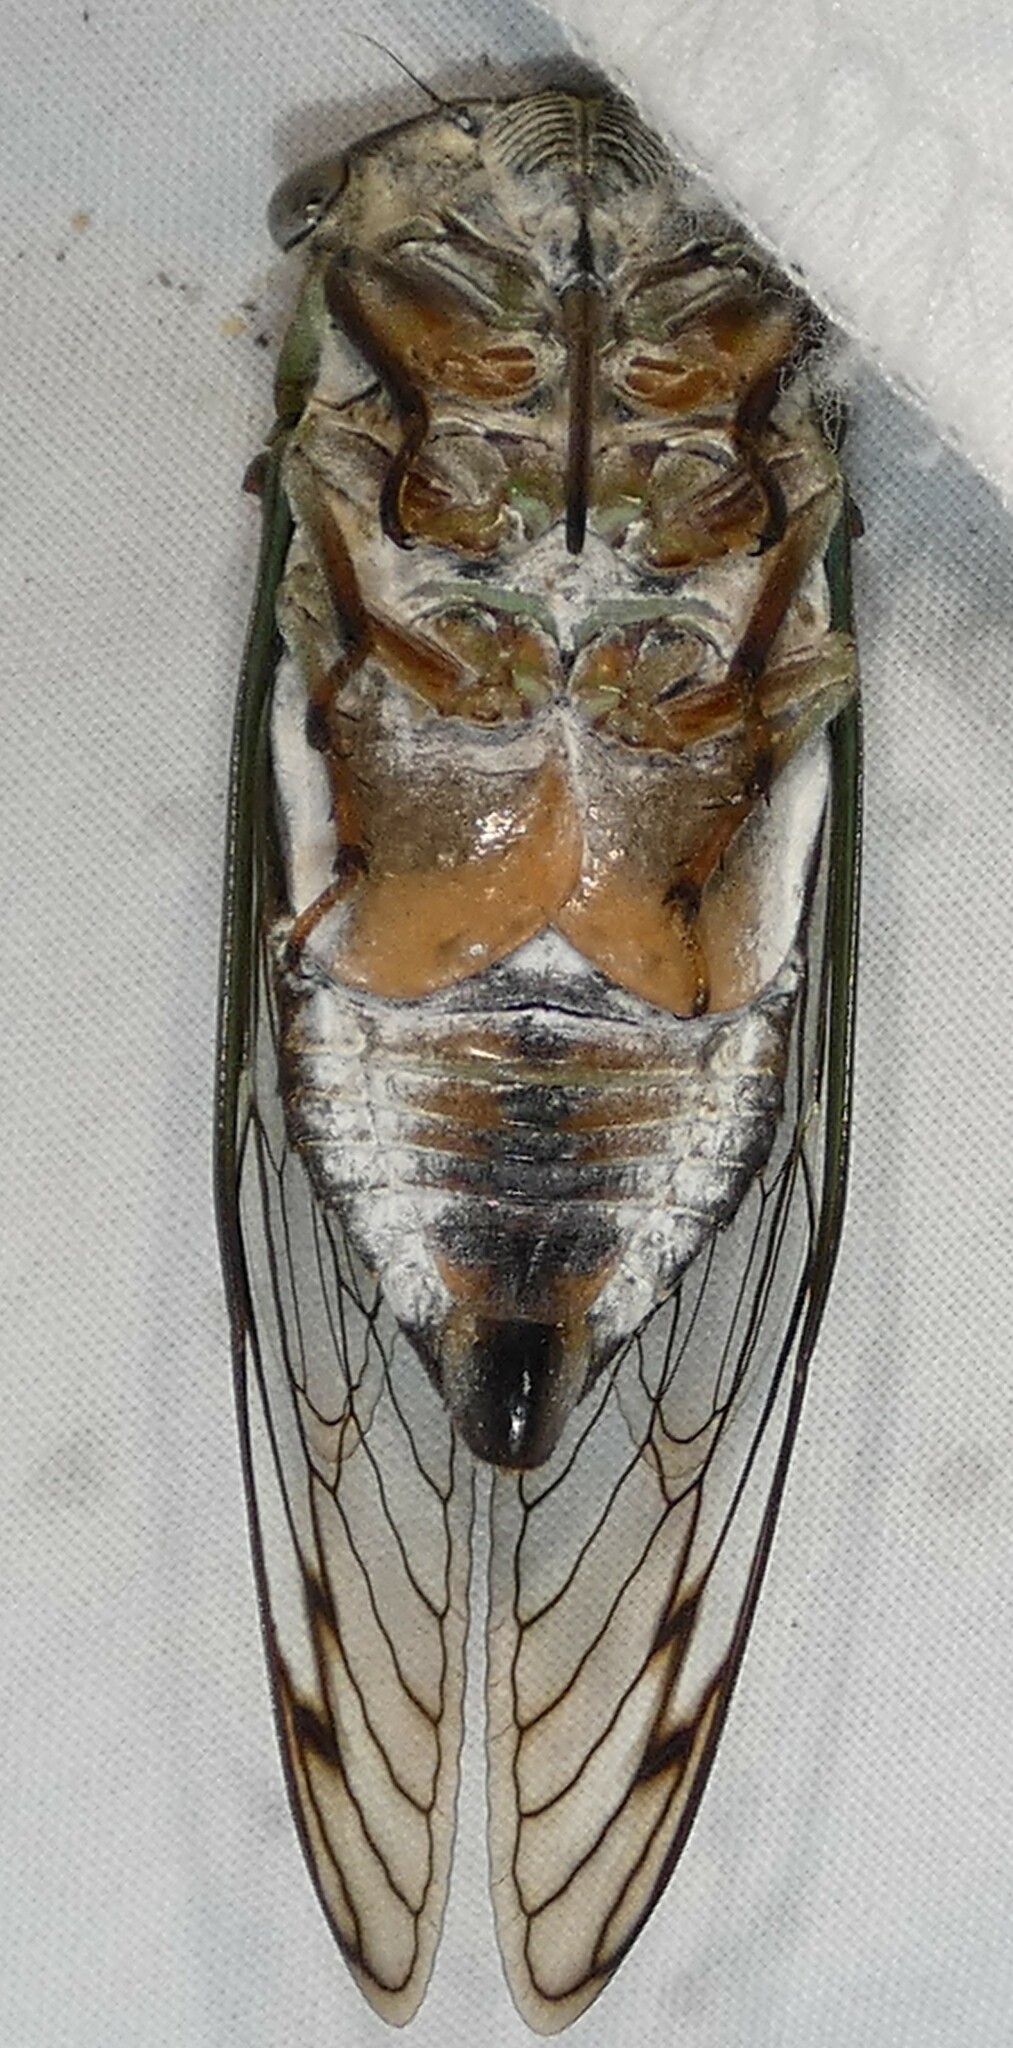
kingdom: Animalia
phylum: Arthropoda
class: Insecta
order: Hemiptera
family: Cicadidae
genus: Neotibicen
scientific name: Neotibicen davisi
